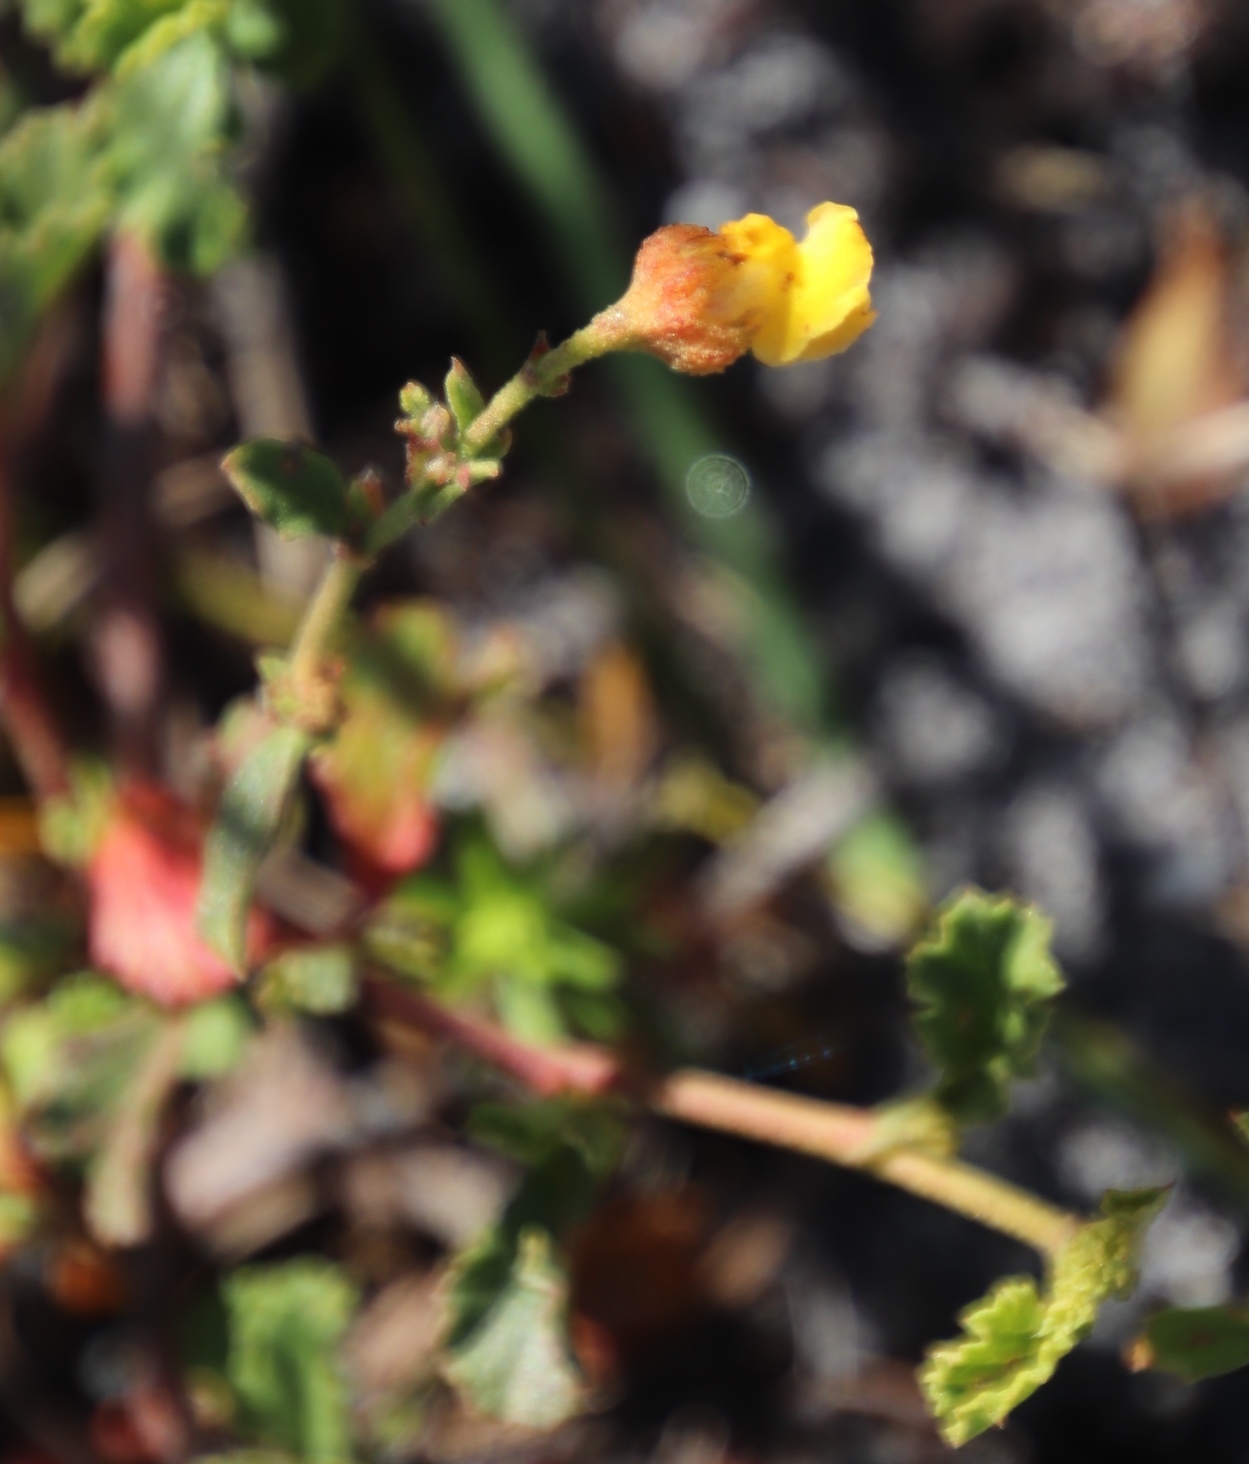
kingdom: Plantae
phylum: Tracheophyta
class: Magnoliopsida
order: Malvales
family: Malvaceae
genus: Hermannia
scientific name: Hermannia multiflora
